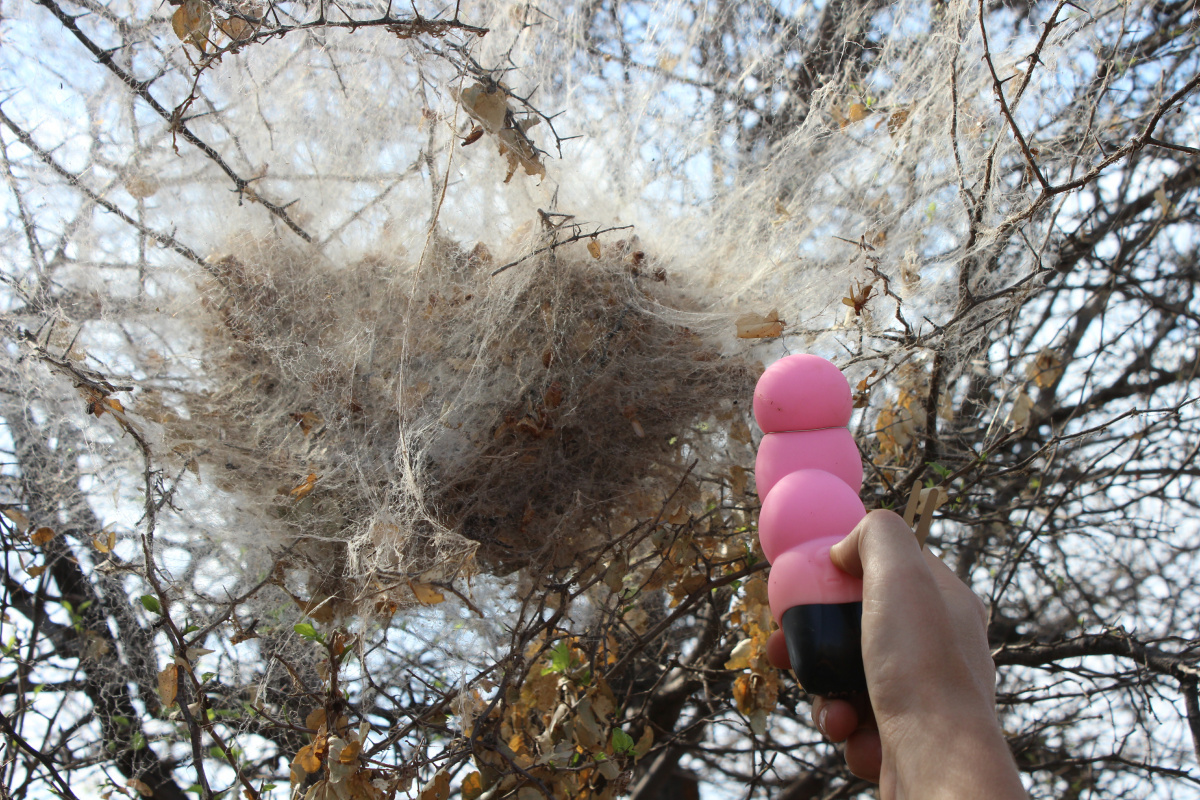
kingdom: Animalia
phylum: Arthropoda
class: Arachnida
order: Araneae
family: Eresidae
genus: Stegodyphus
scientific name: Stegodyphus dumicola
